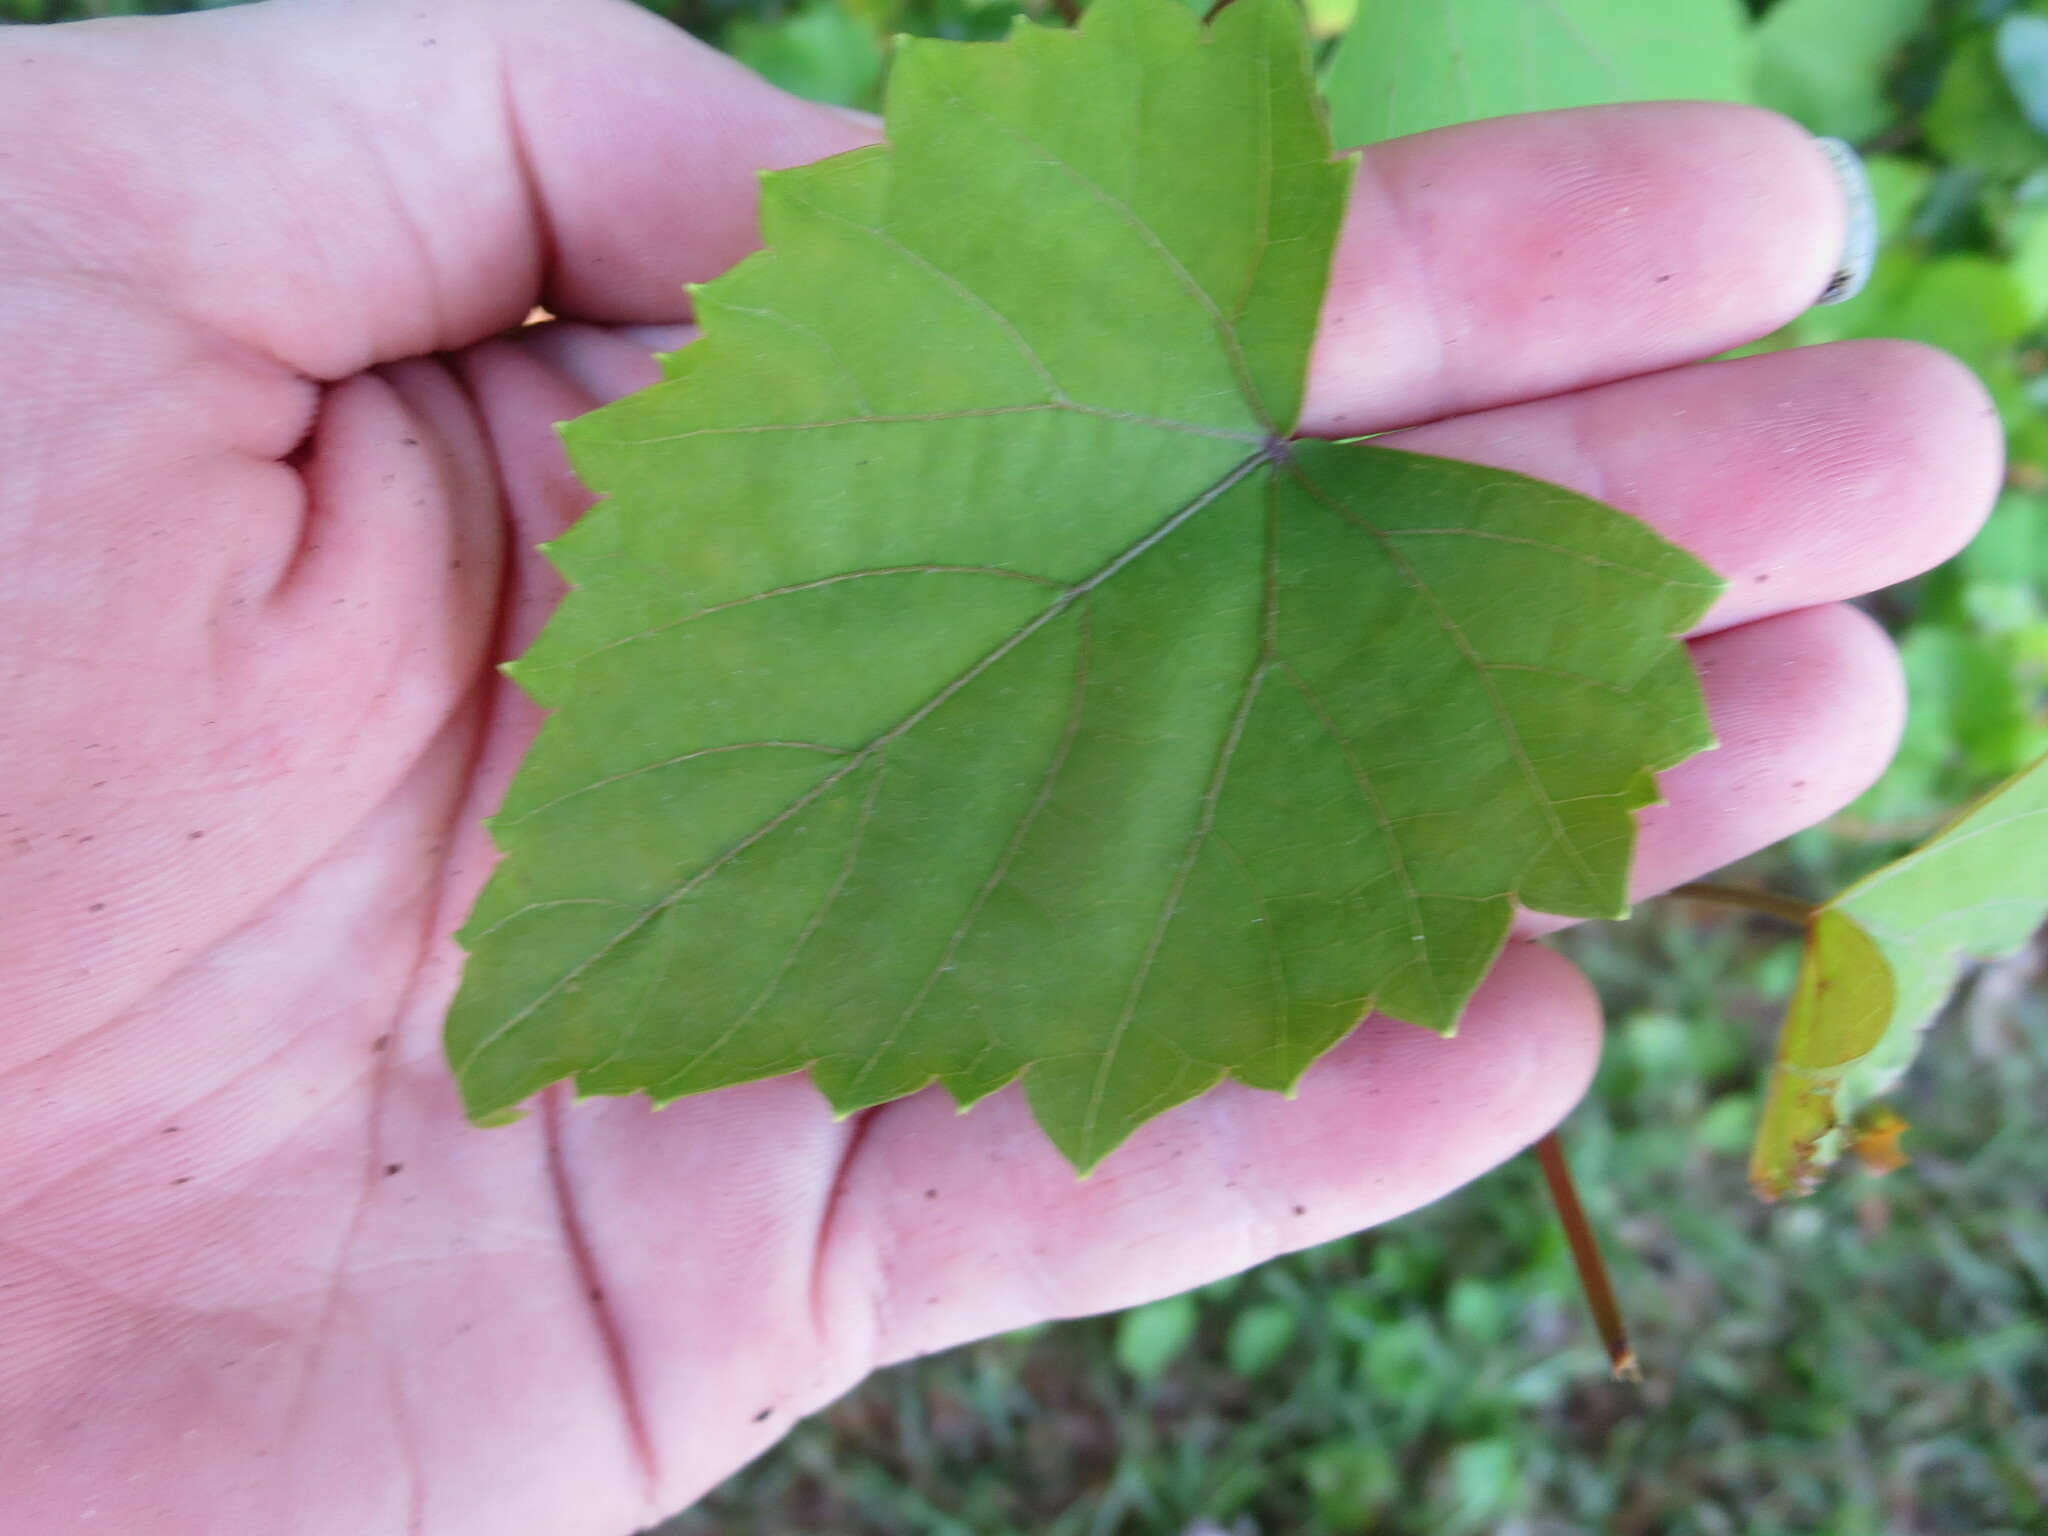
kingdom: Plantae
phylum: Tracheophyta
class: Magnoliopsida
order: Vitales
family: Vitaceae
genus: Vitis
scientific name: Vitis rotundifolia
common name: Muscadine grape
